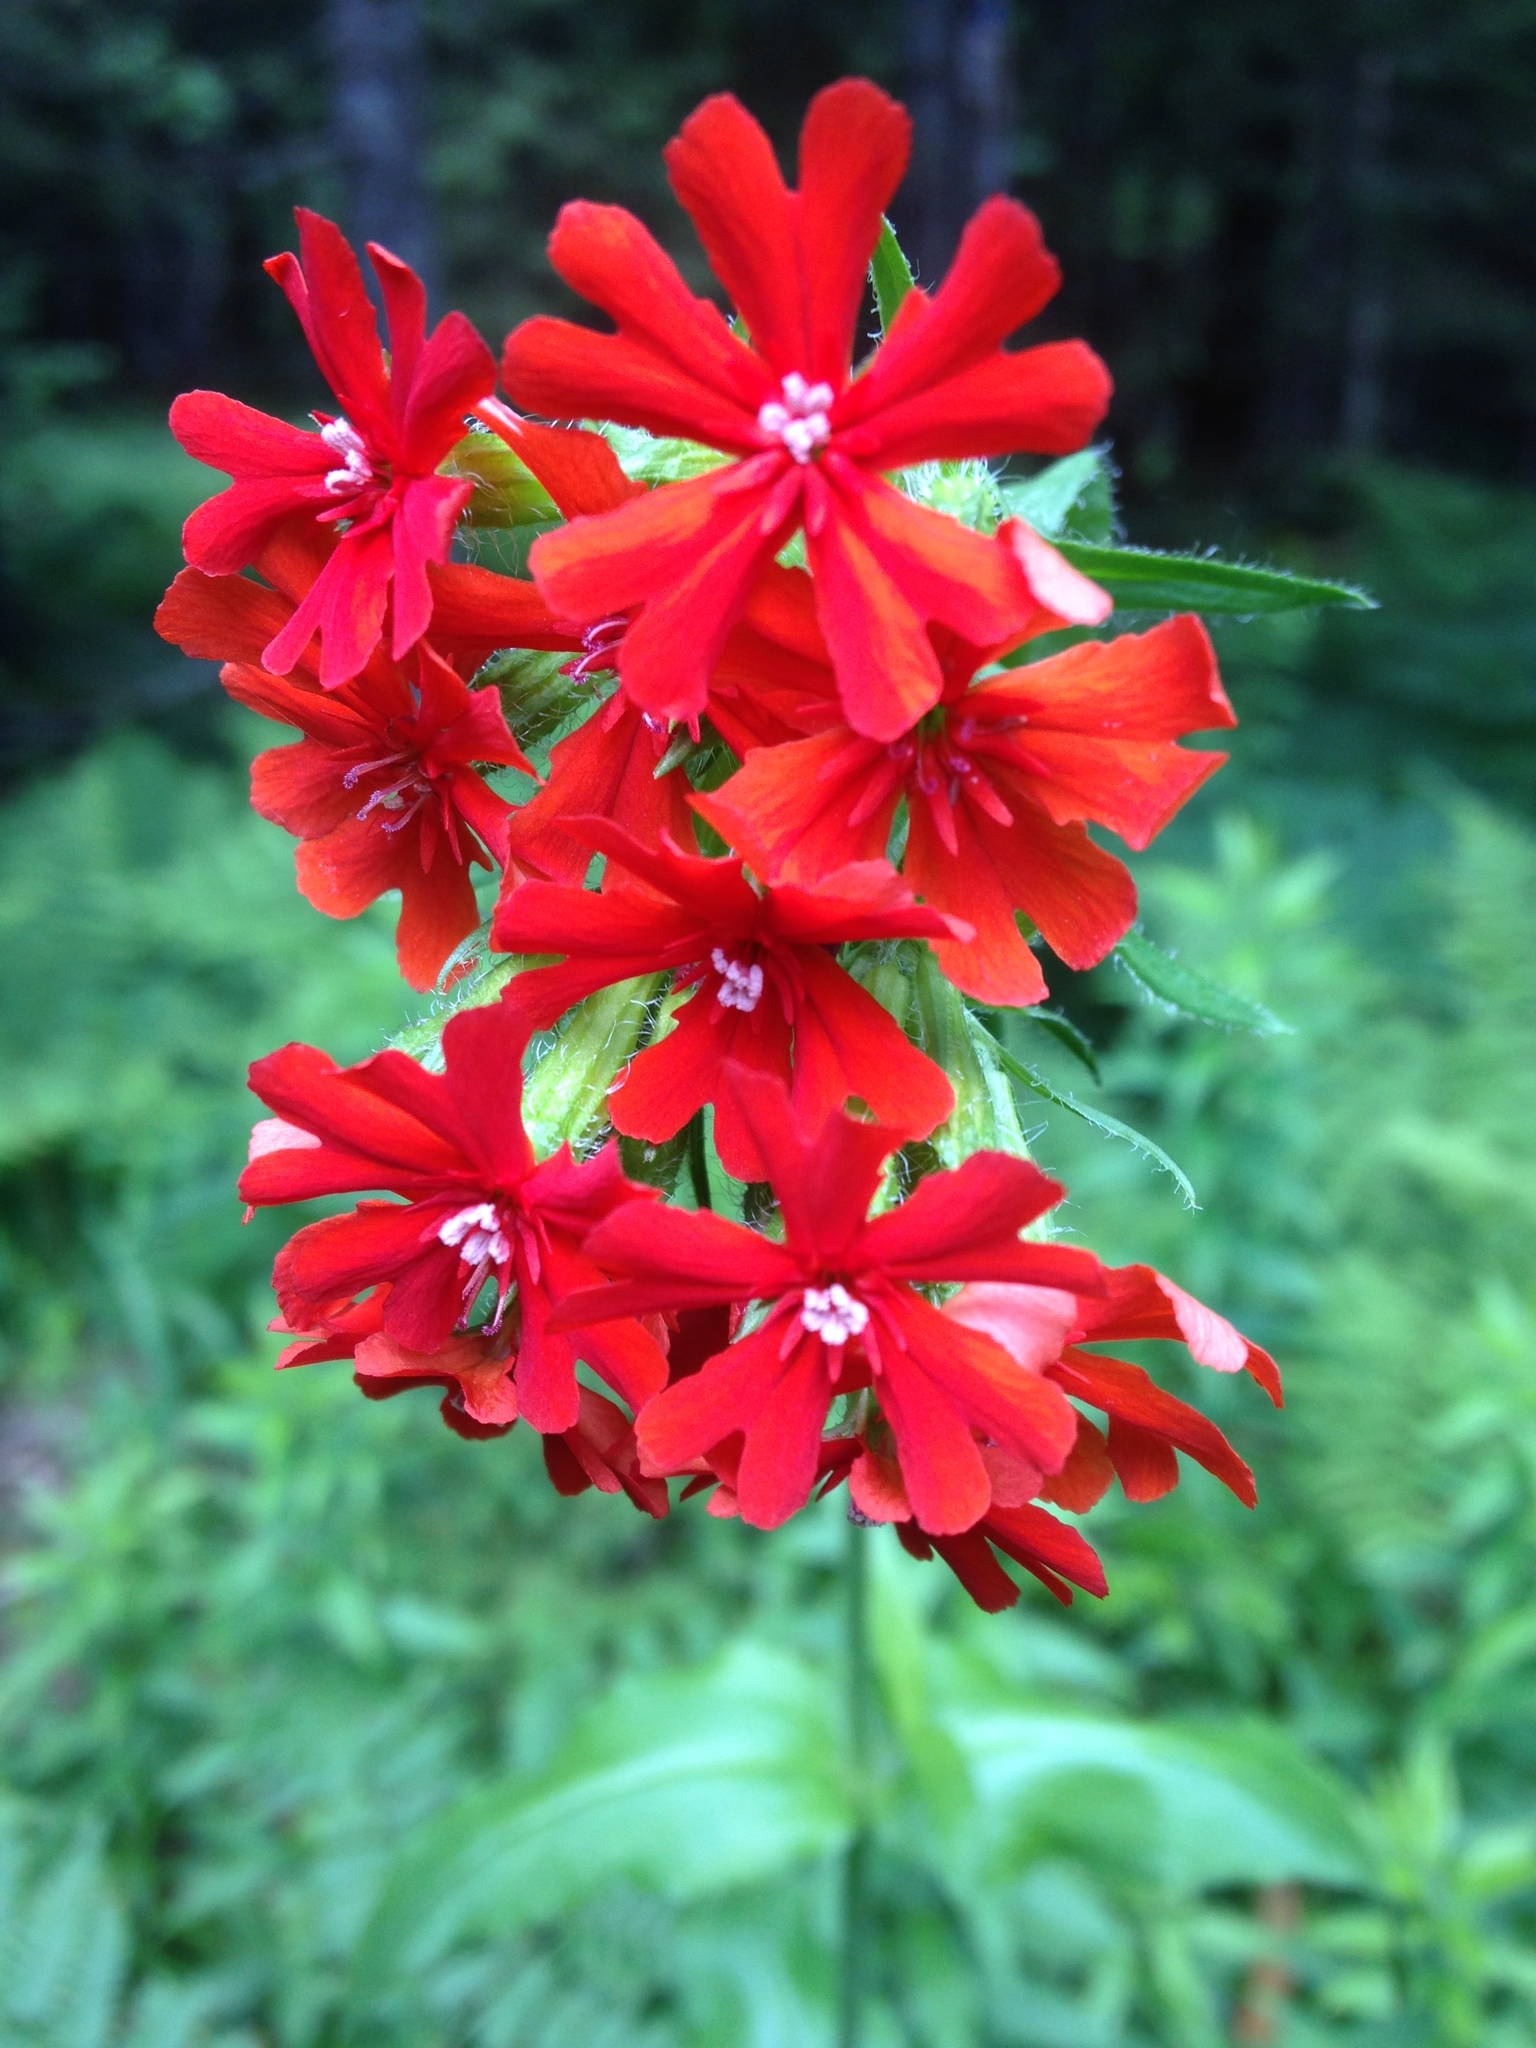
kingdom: Plantae
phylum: Tracheophyta
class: Magnoliopsida
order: Caryophyllales
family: Caryophyllaceae
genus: Silene
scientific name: Silene chalcedonica
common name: Maltese-cross
